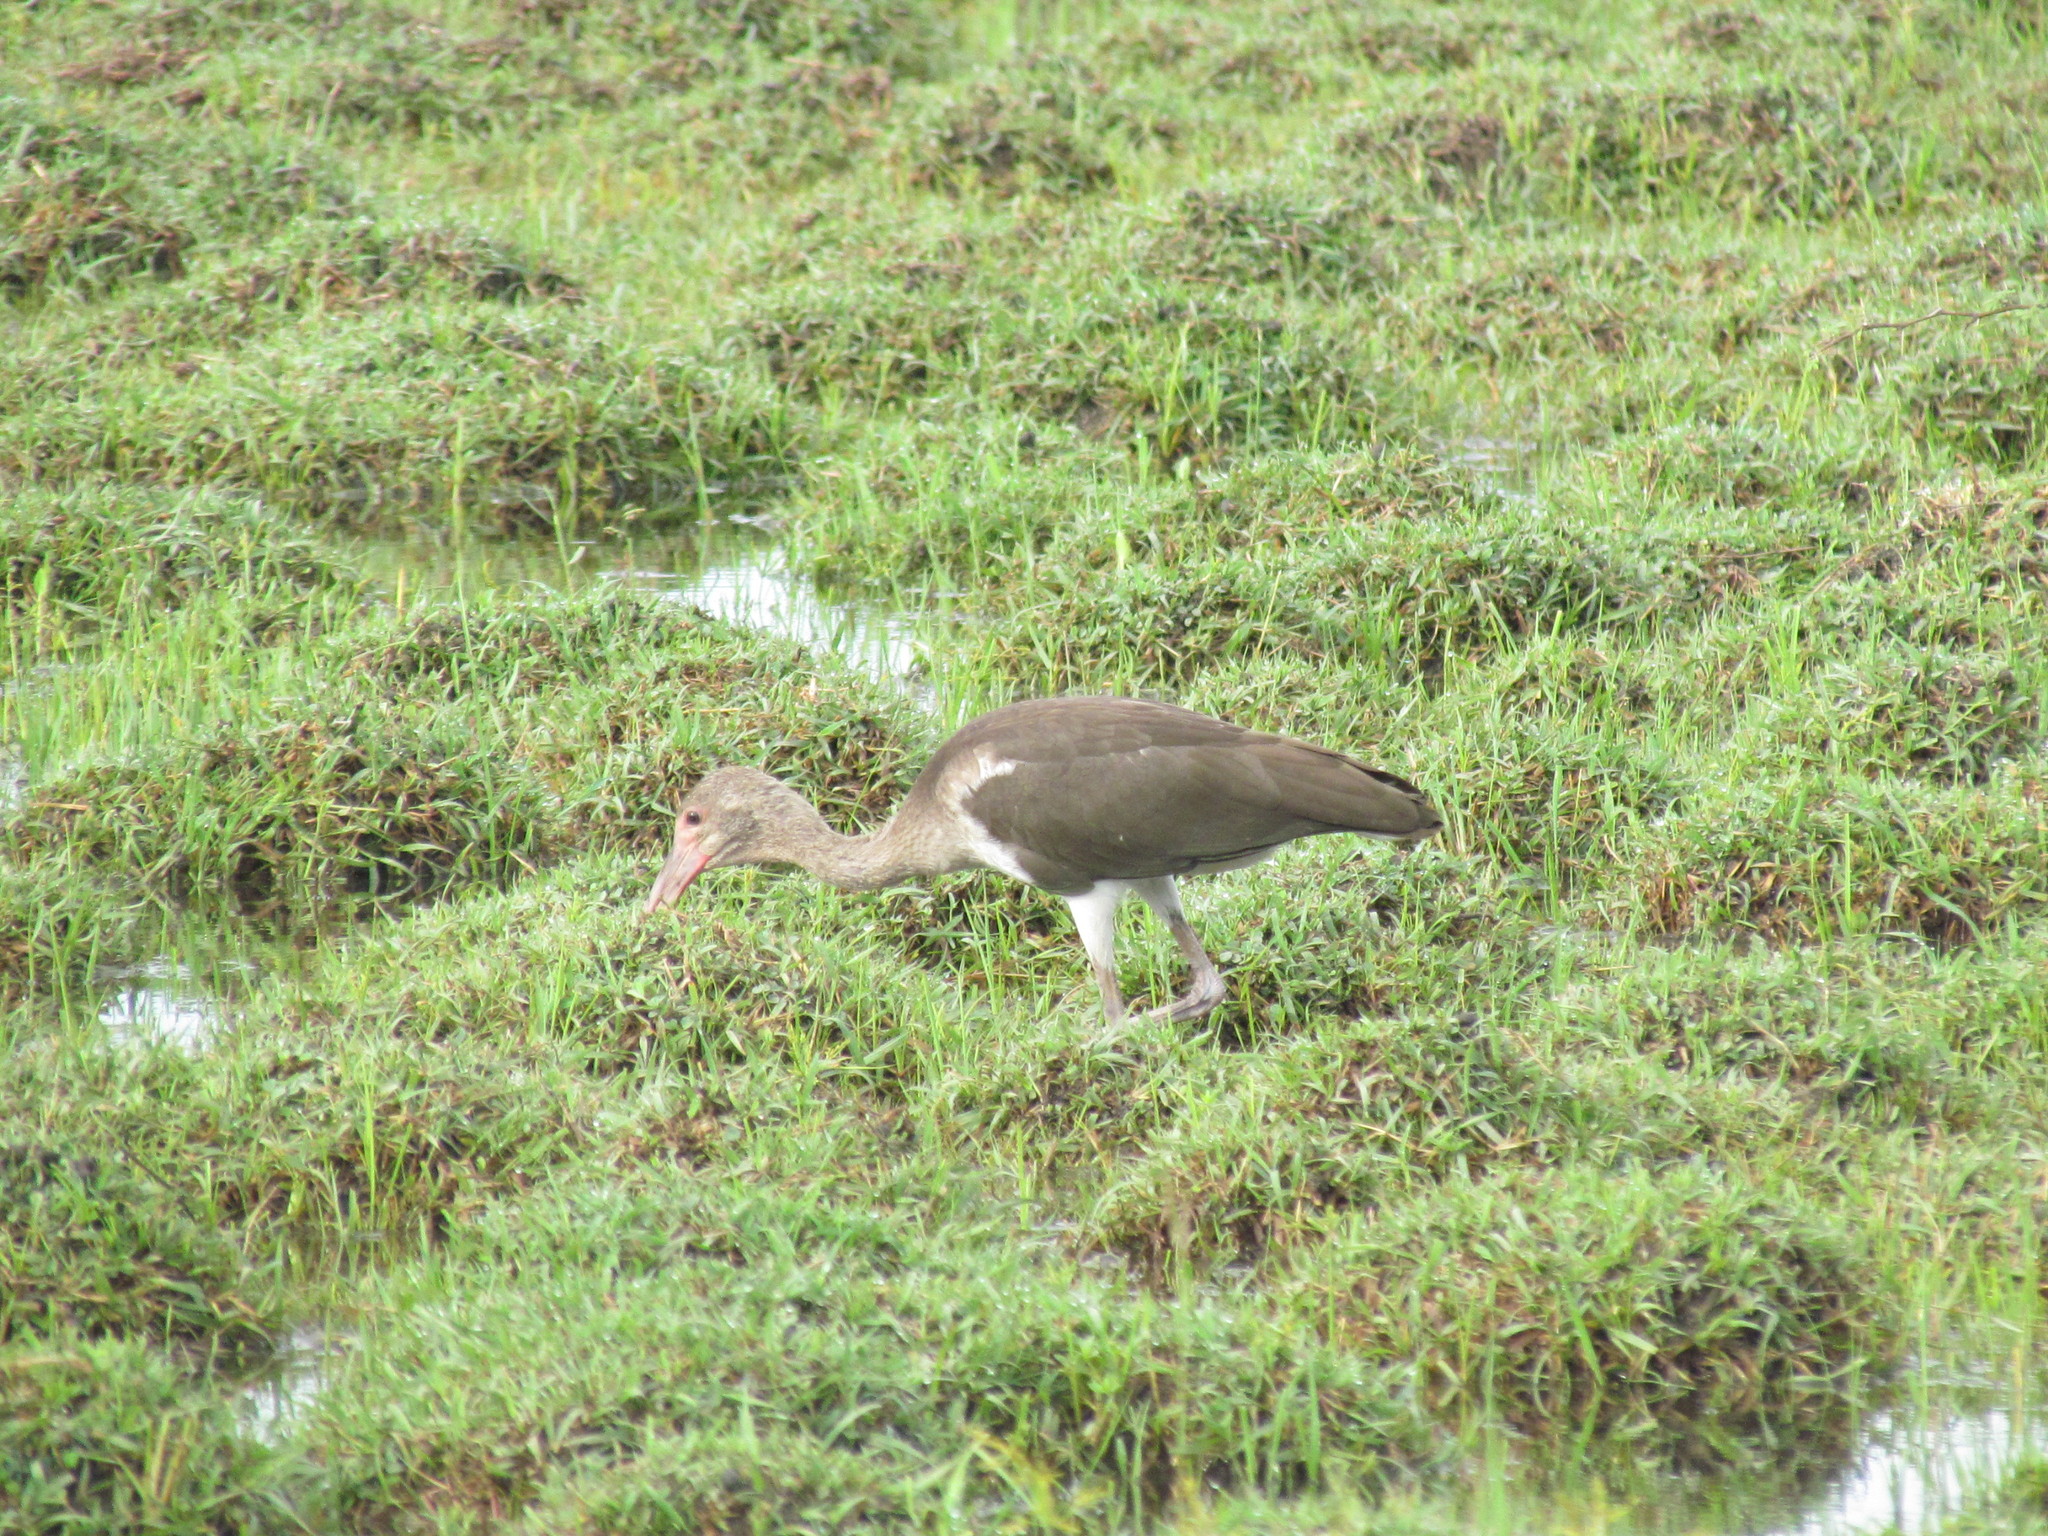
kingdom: Animalia
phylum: Chordata
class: Aves
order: Pelecaniformes
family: Threskiornithidae
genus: Eudocimus
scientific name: Eudocimus albus
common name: White ibis
